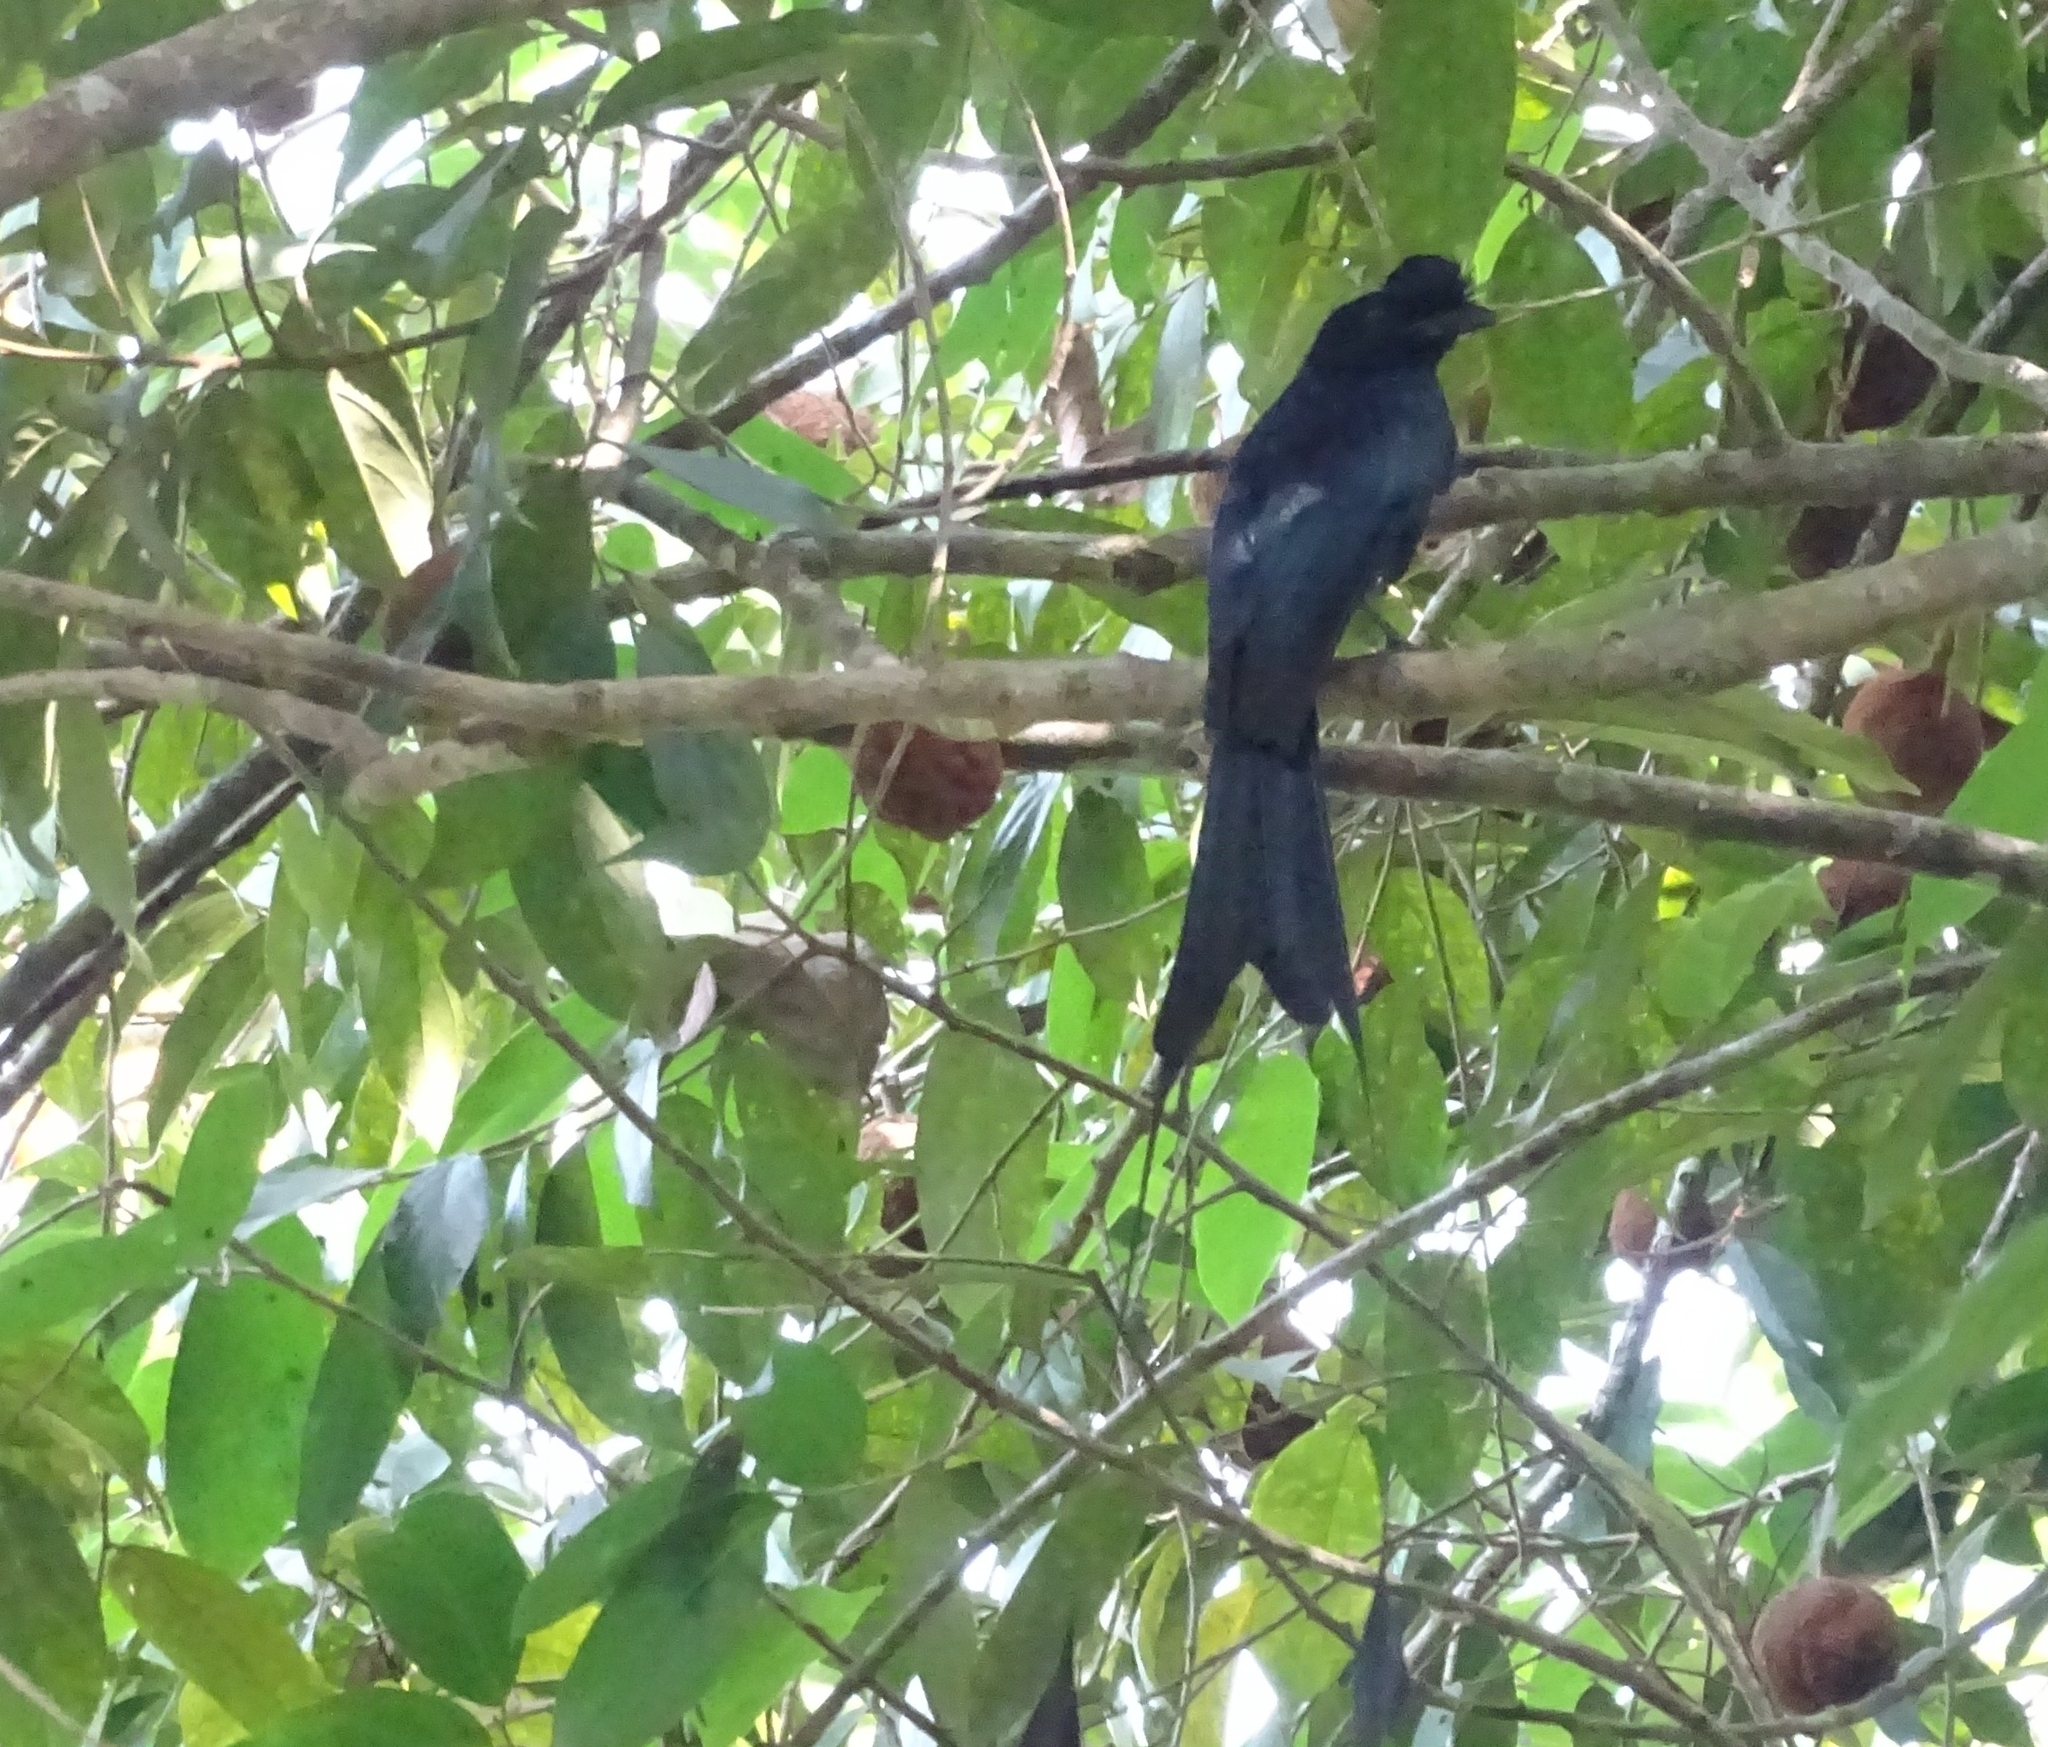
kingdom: Animalia
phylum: Chordata
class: Aves
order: Passeriformes
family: Dicruridae
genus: Dicrurus
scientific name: Dicrurus paradiseus
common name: Greater racket-tailed drongo
